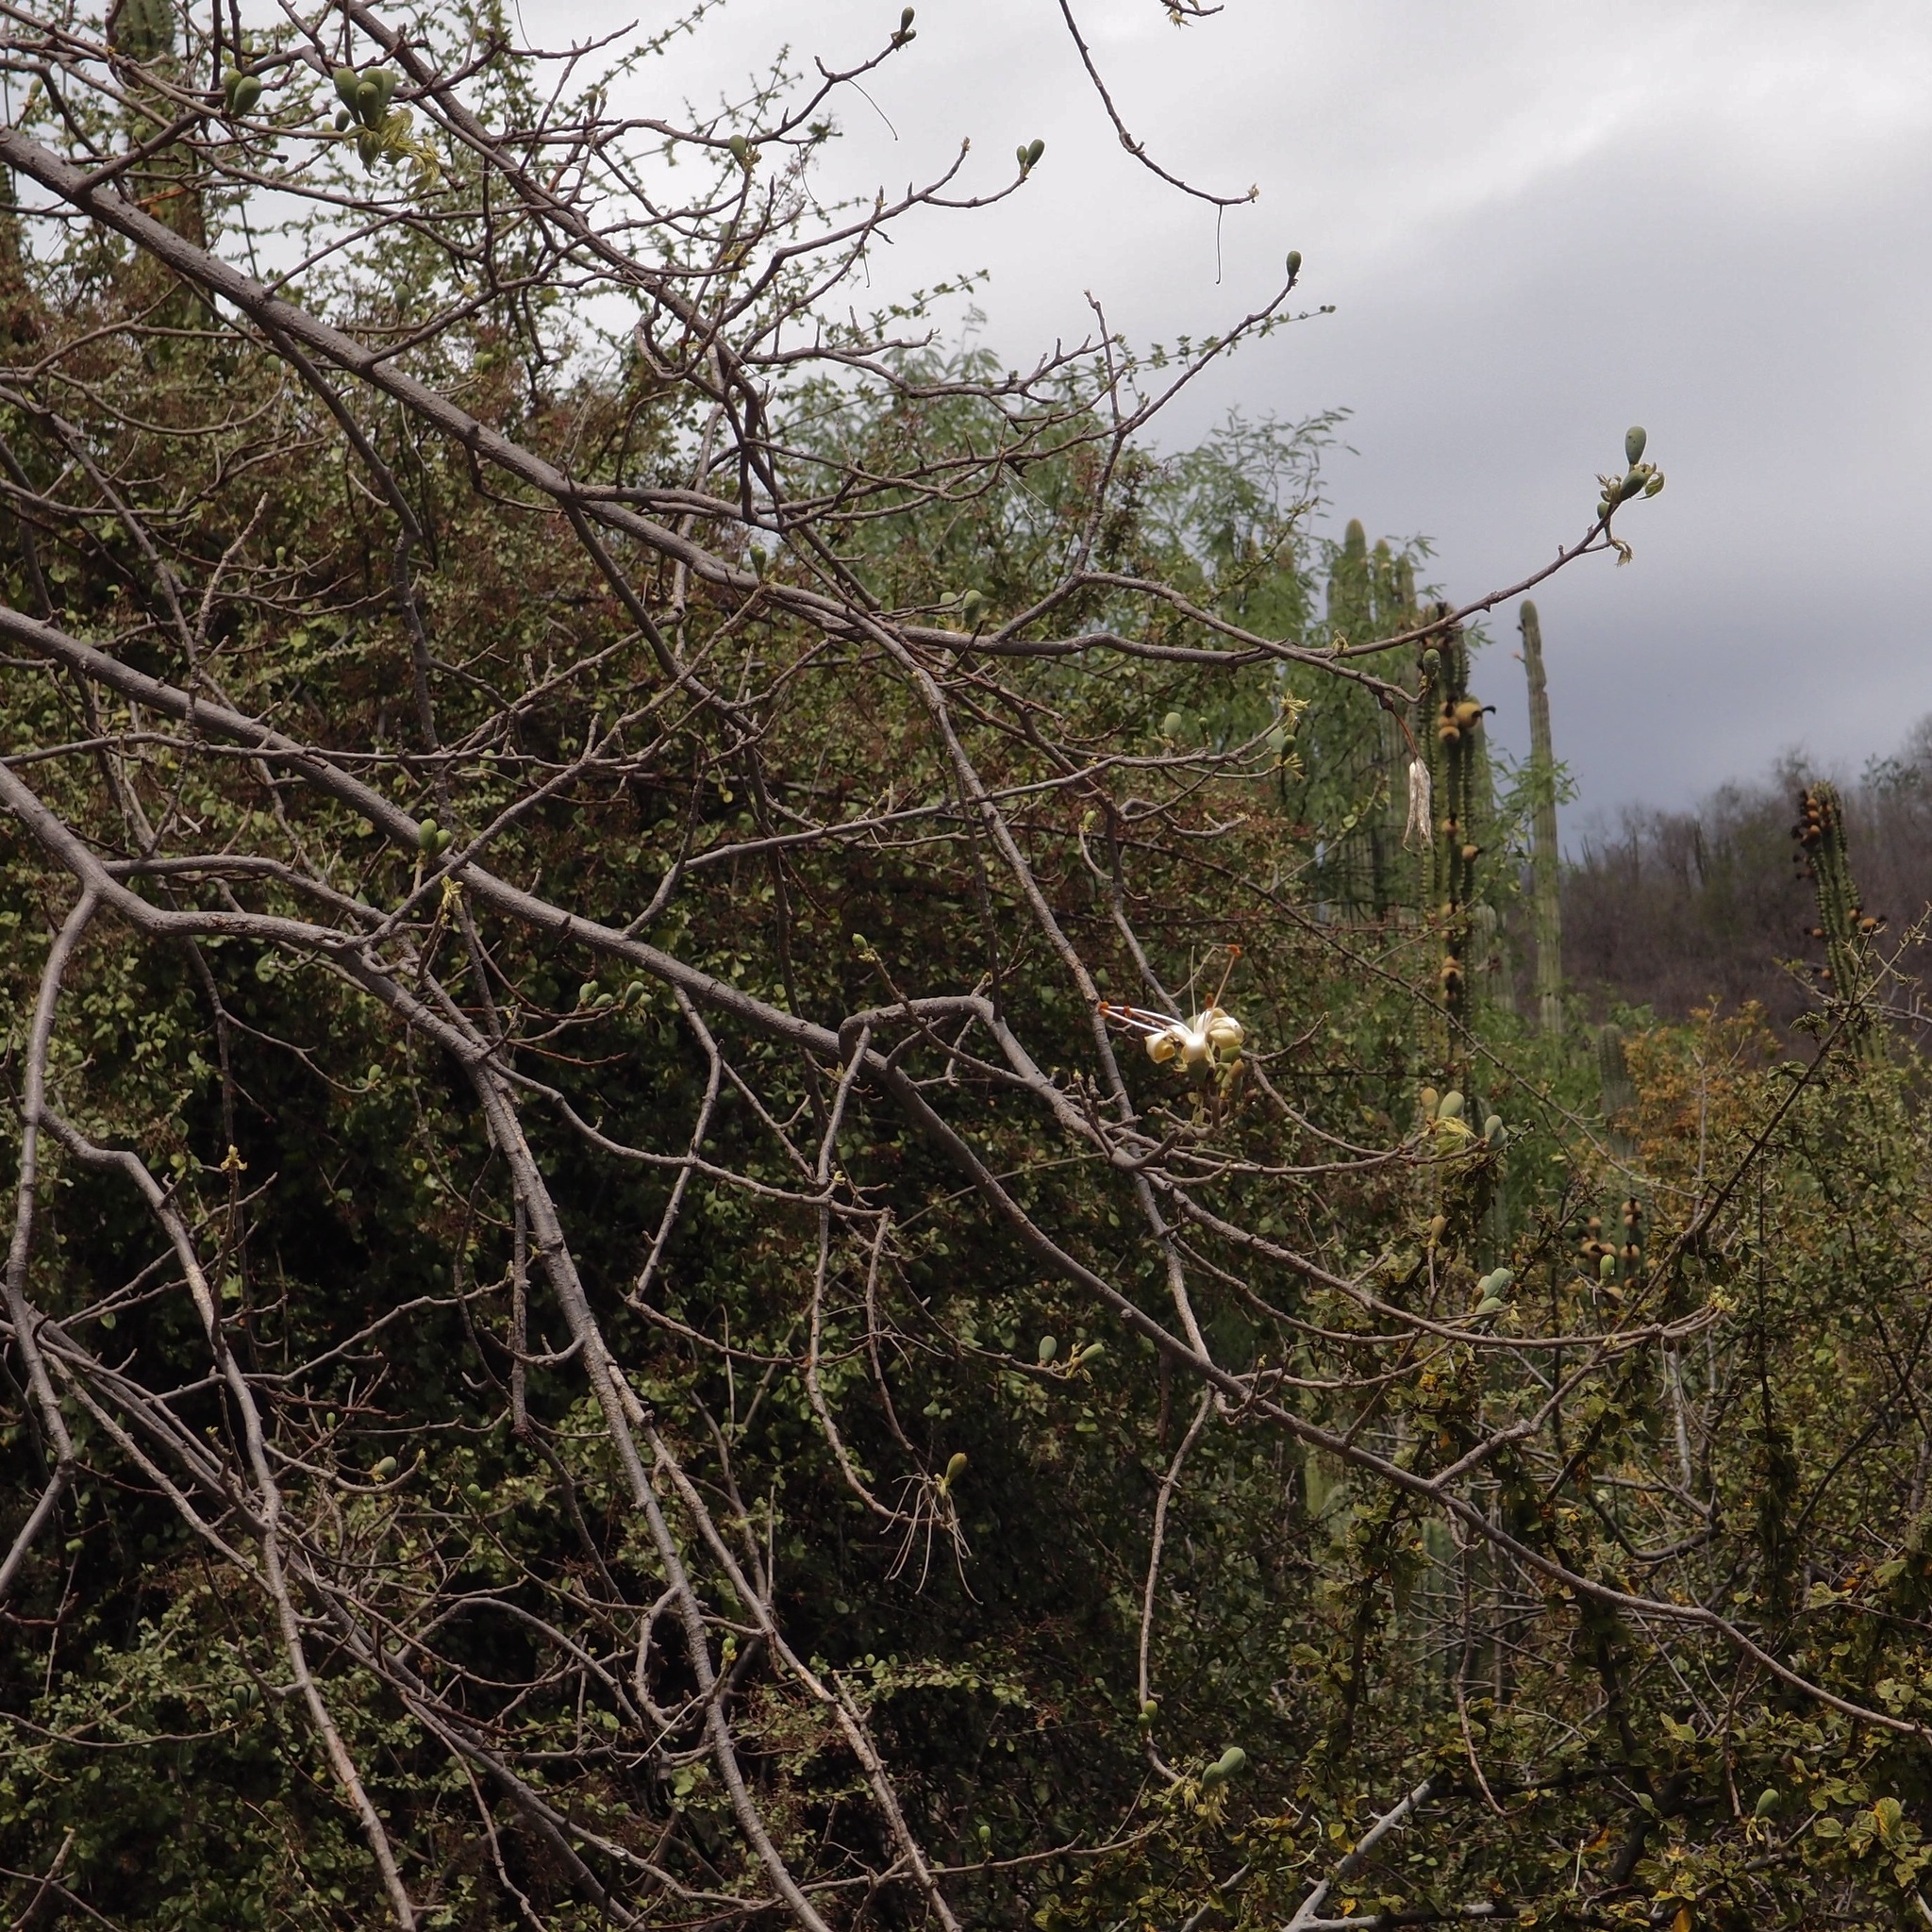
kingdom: Plantae
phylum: Tracheophyta
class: Magnoliopsida
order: Malvales
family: Malvaceae
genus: Ceiba
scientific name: Ceiba aesculifolia
